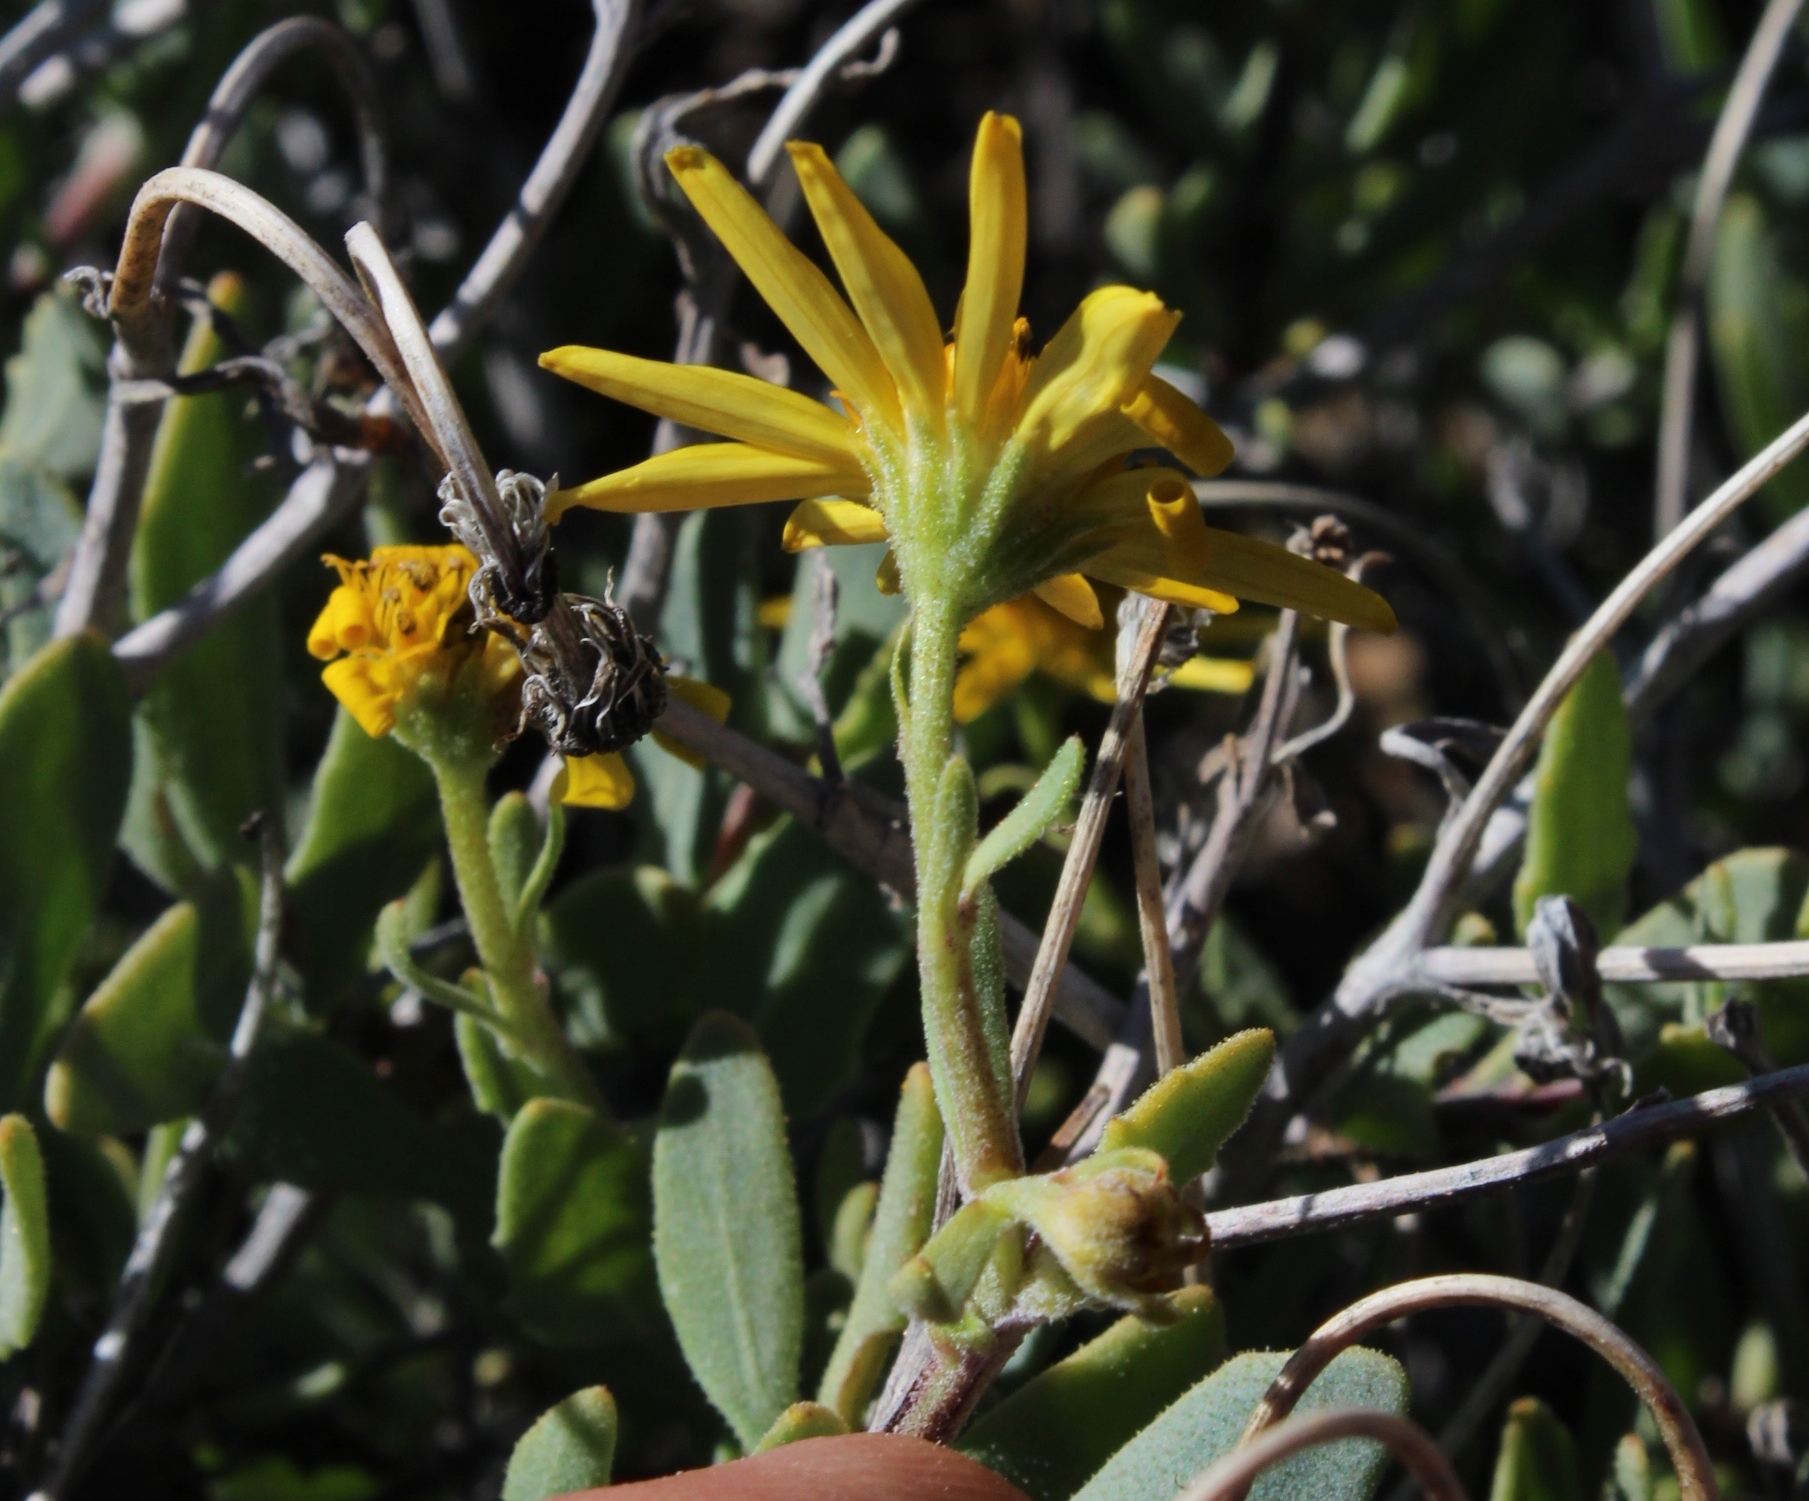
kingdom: Plantae
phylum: Tracheophyta
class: Magnoliopsida
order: Asterales
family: Asteraceae
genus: Osteospermum
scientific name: Osteospermum sinuatum
